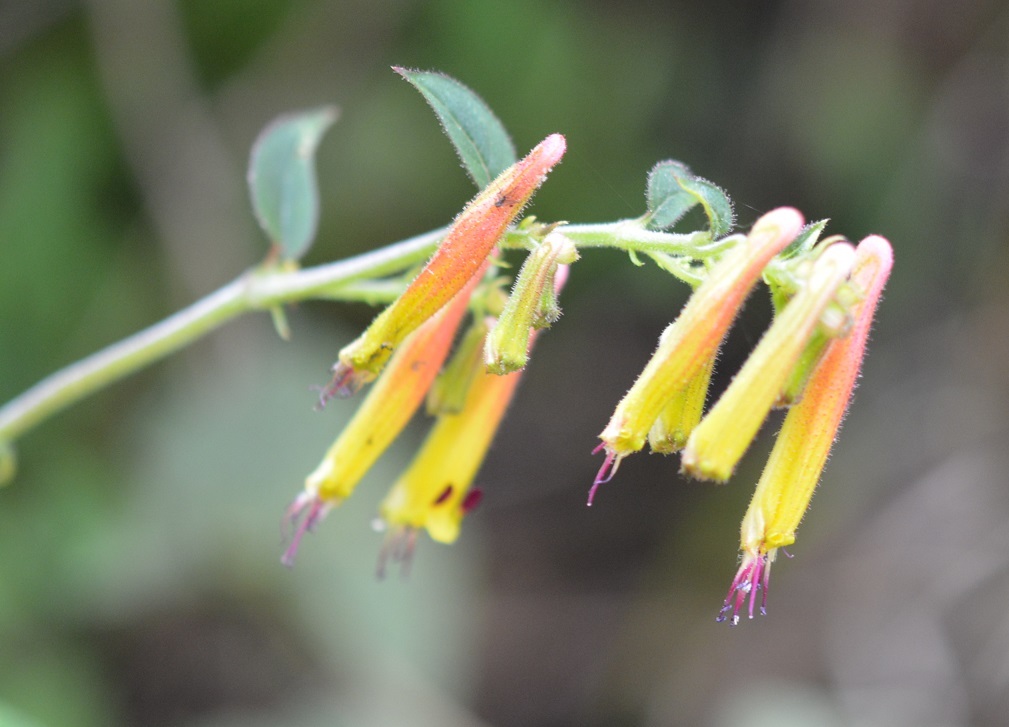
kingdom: Plantae
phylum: Tracheophyta
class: Magnoliopsida
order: Myrtales
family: Lythraceae
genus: Cuphea
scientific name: Cuphea cyanea
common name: Black-eyed cuphea
